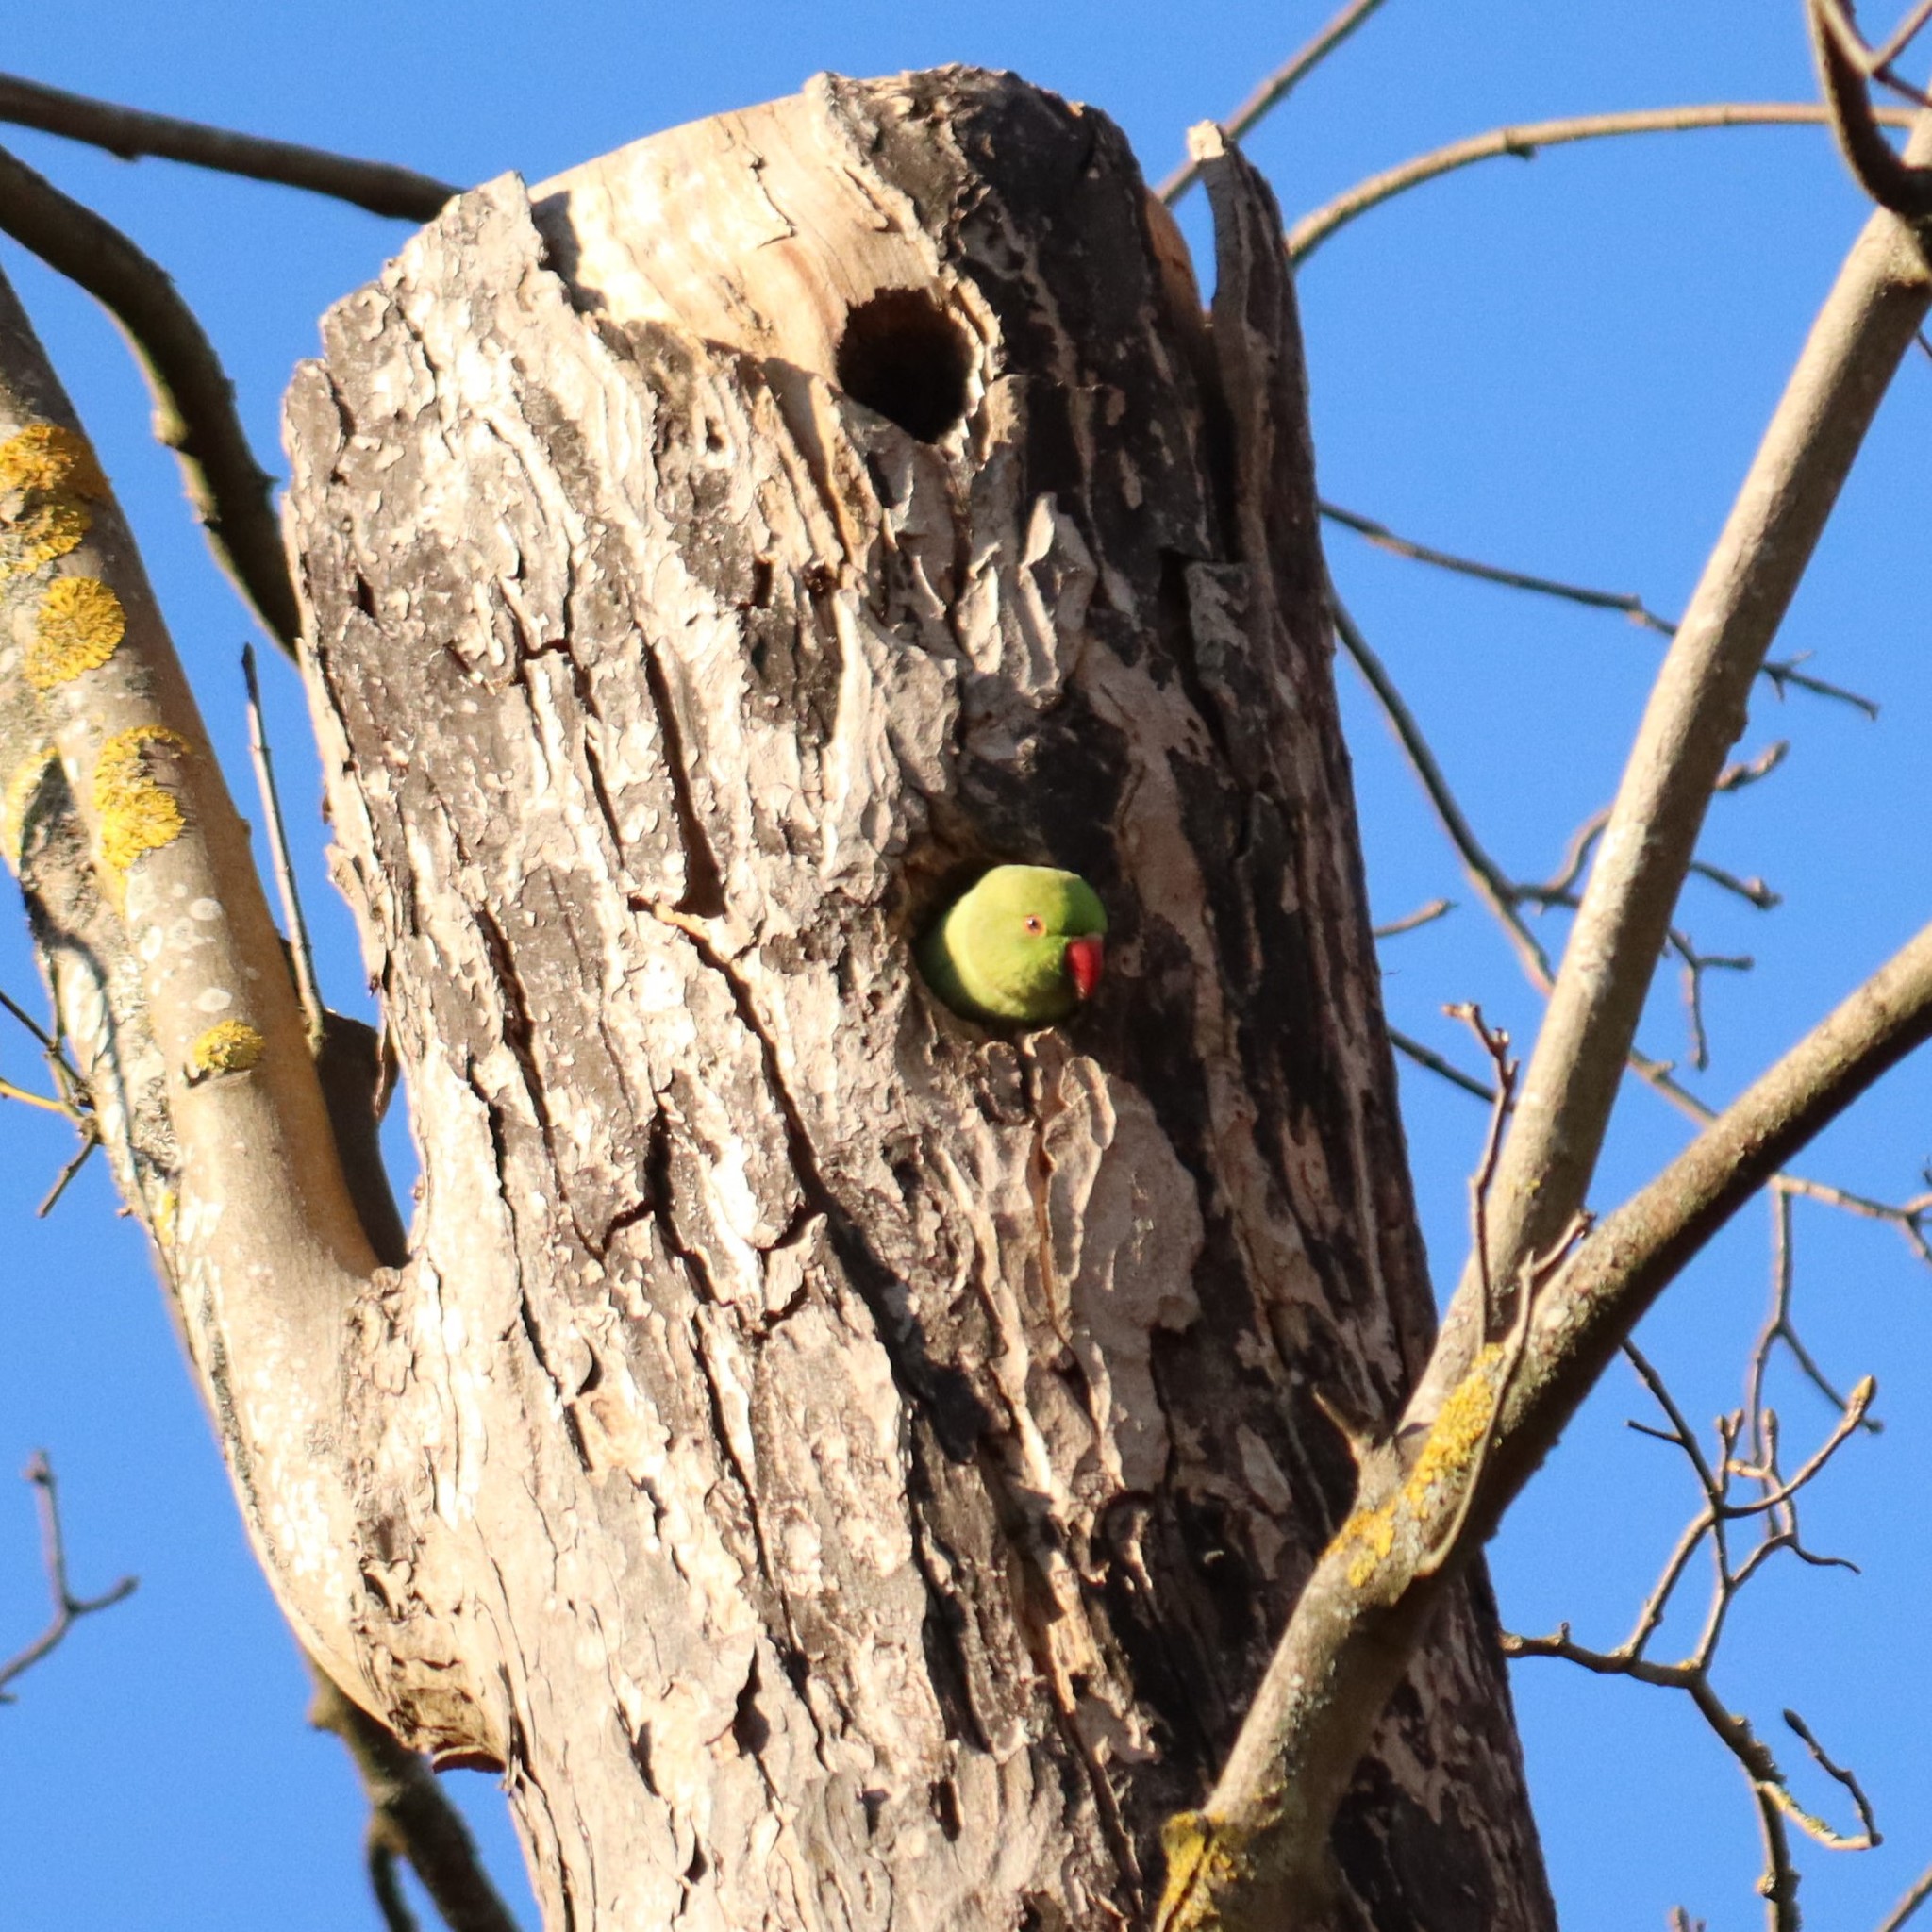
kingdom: Animalia
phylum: Chordata
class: Aves
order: Psittaciformes
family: Psittacidae
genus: Psittacula
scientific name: Psittacula krameri
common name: Rose-ringed parakeet
